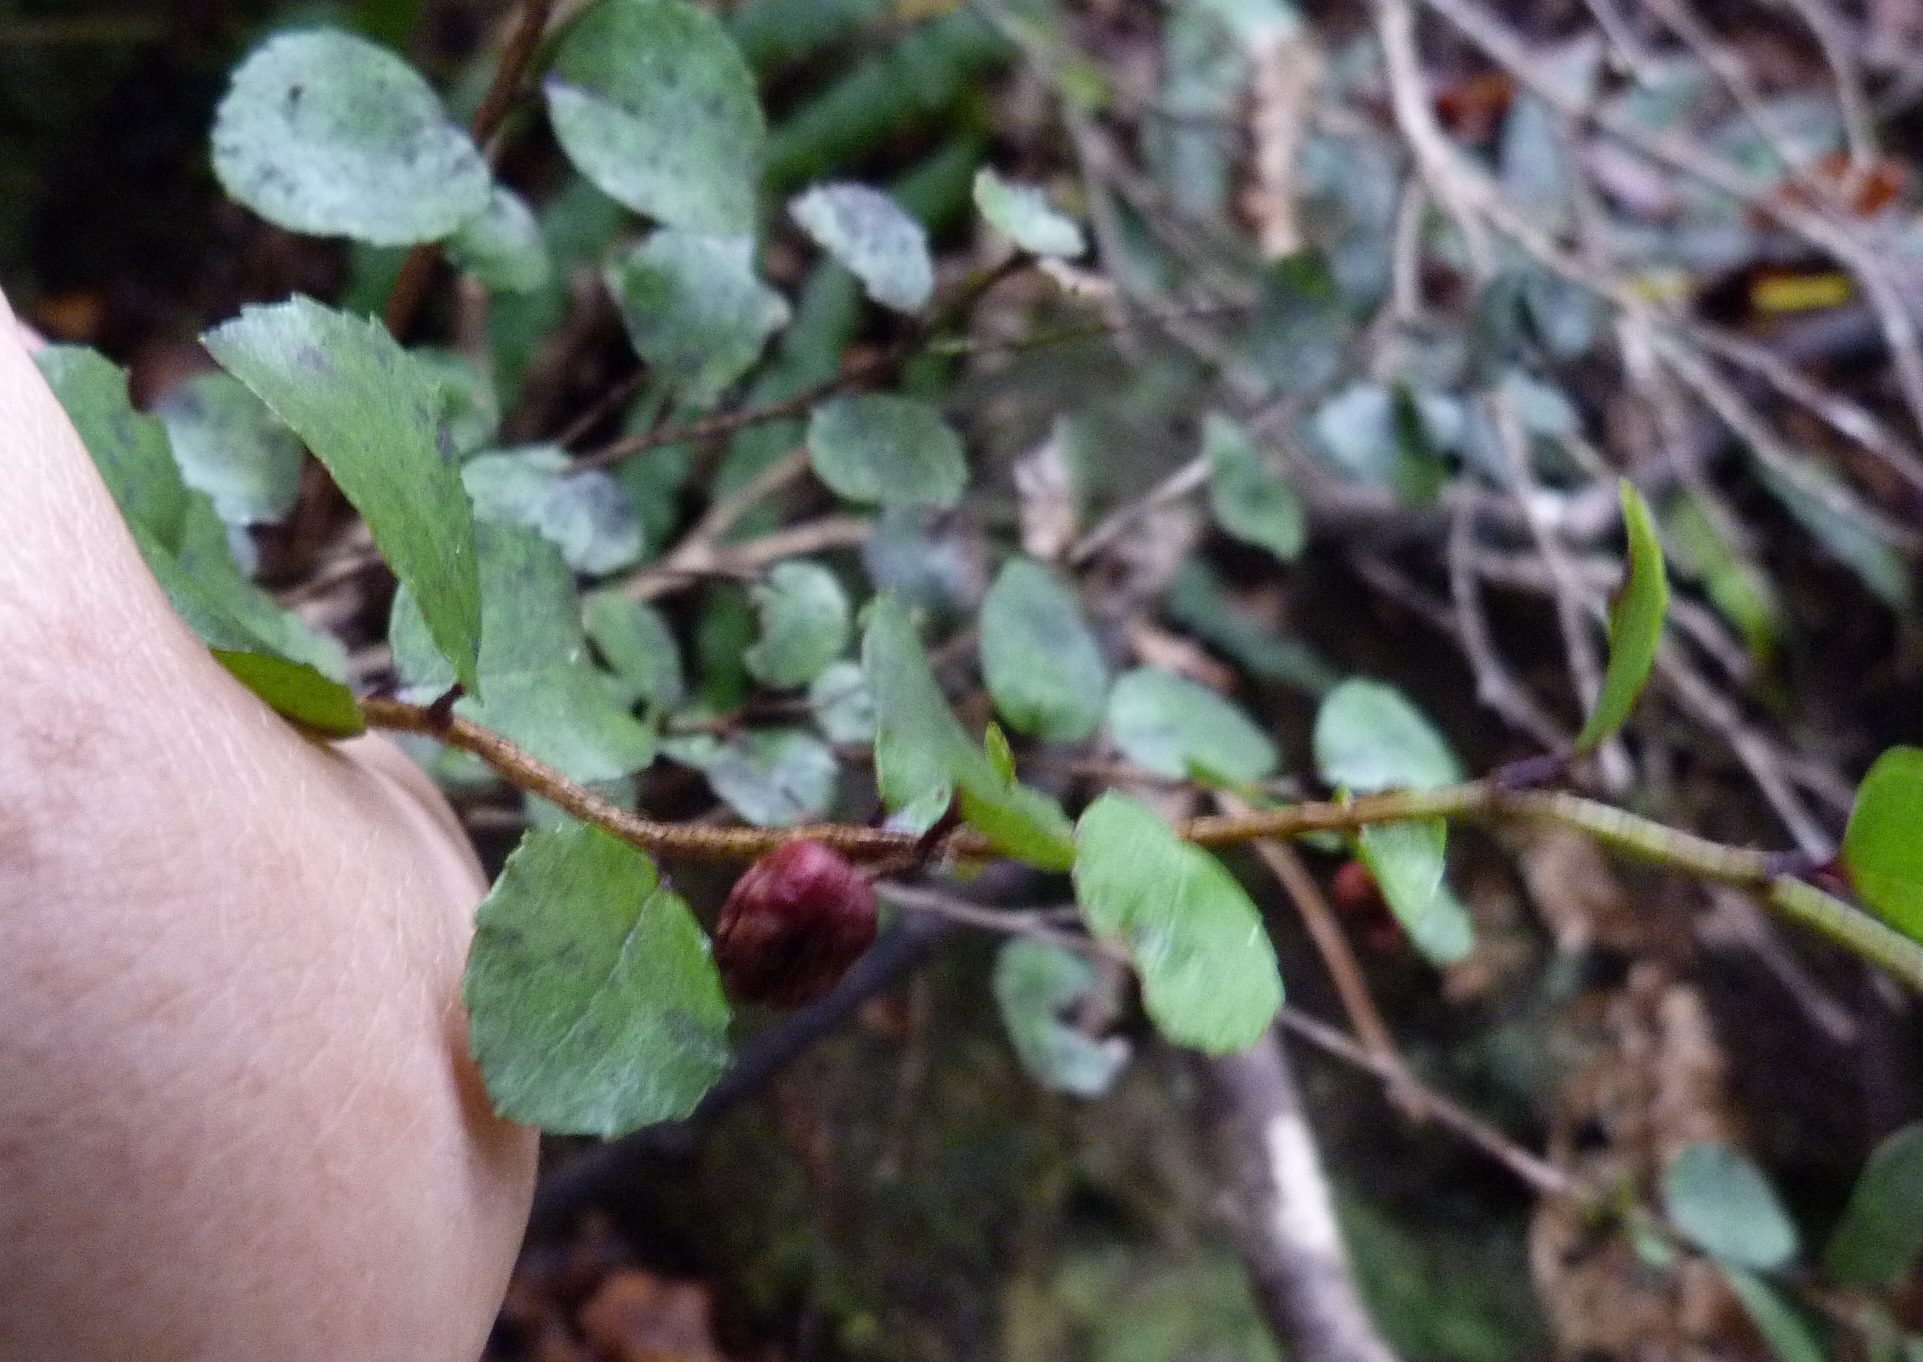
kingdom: Plantae
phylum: Tracheophyta
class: Magnoliopsida
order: Ericales
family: Ericaceae
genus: Gaultheria
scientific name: Gaultheria antipoda
